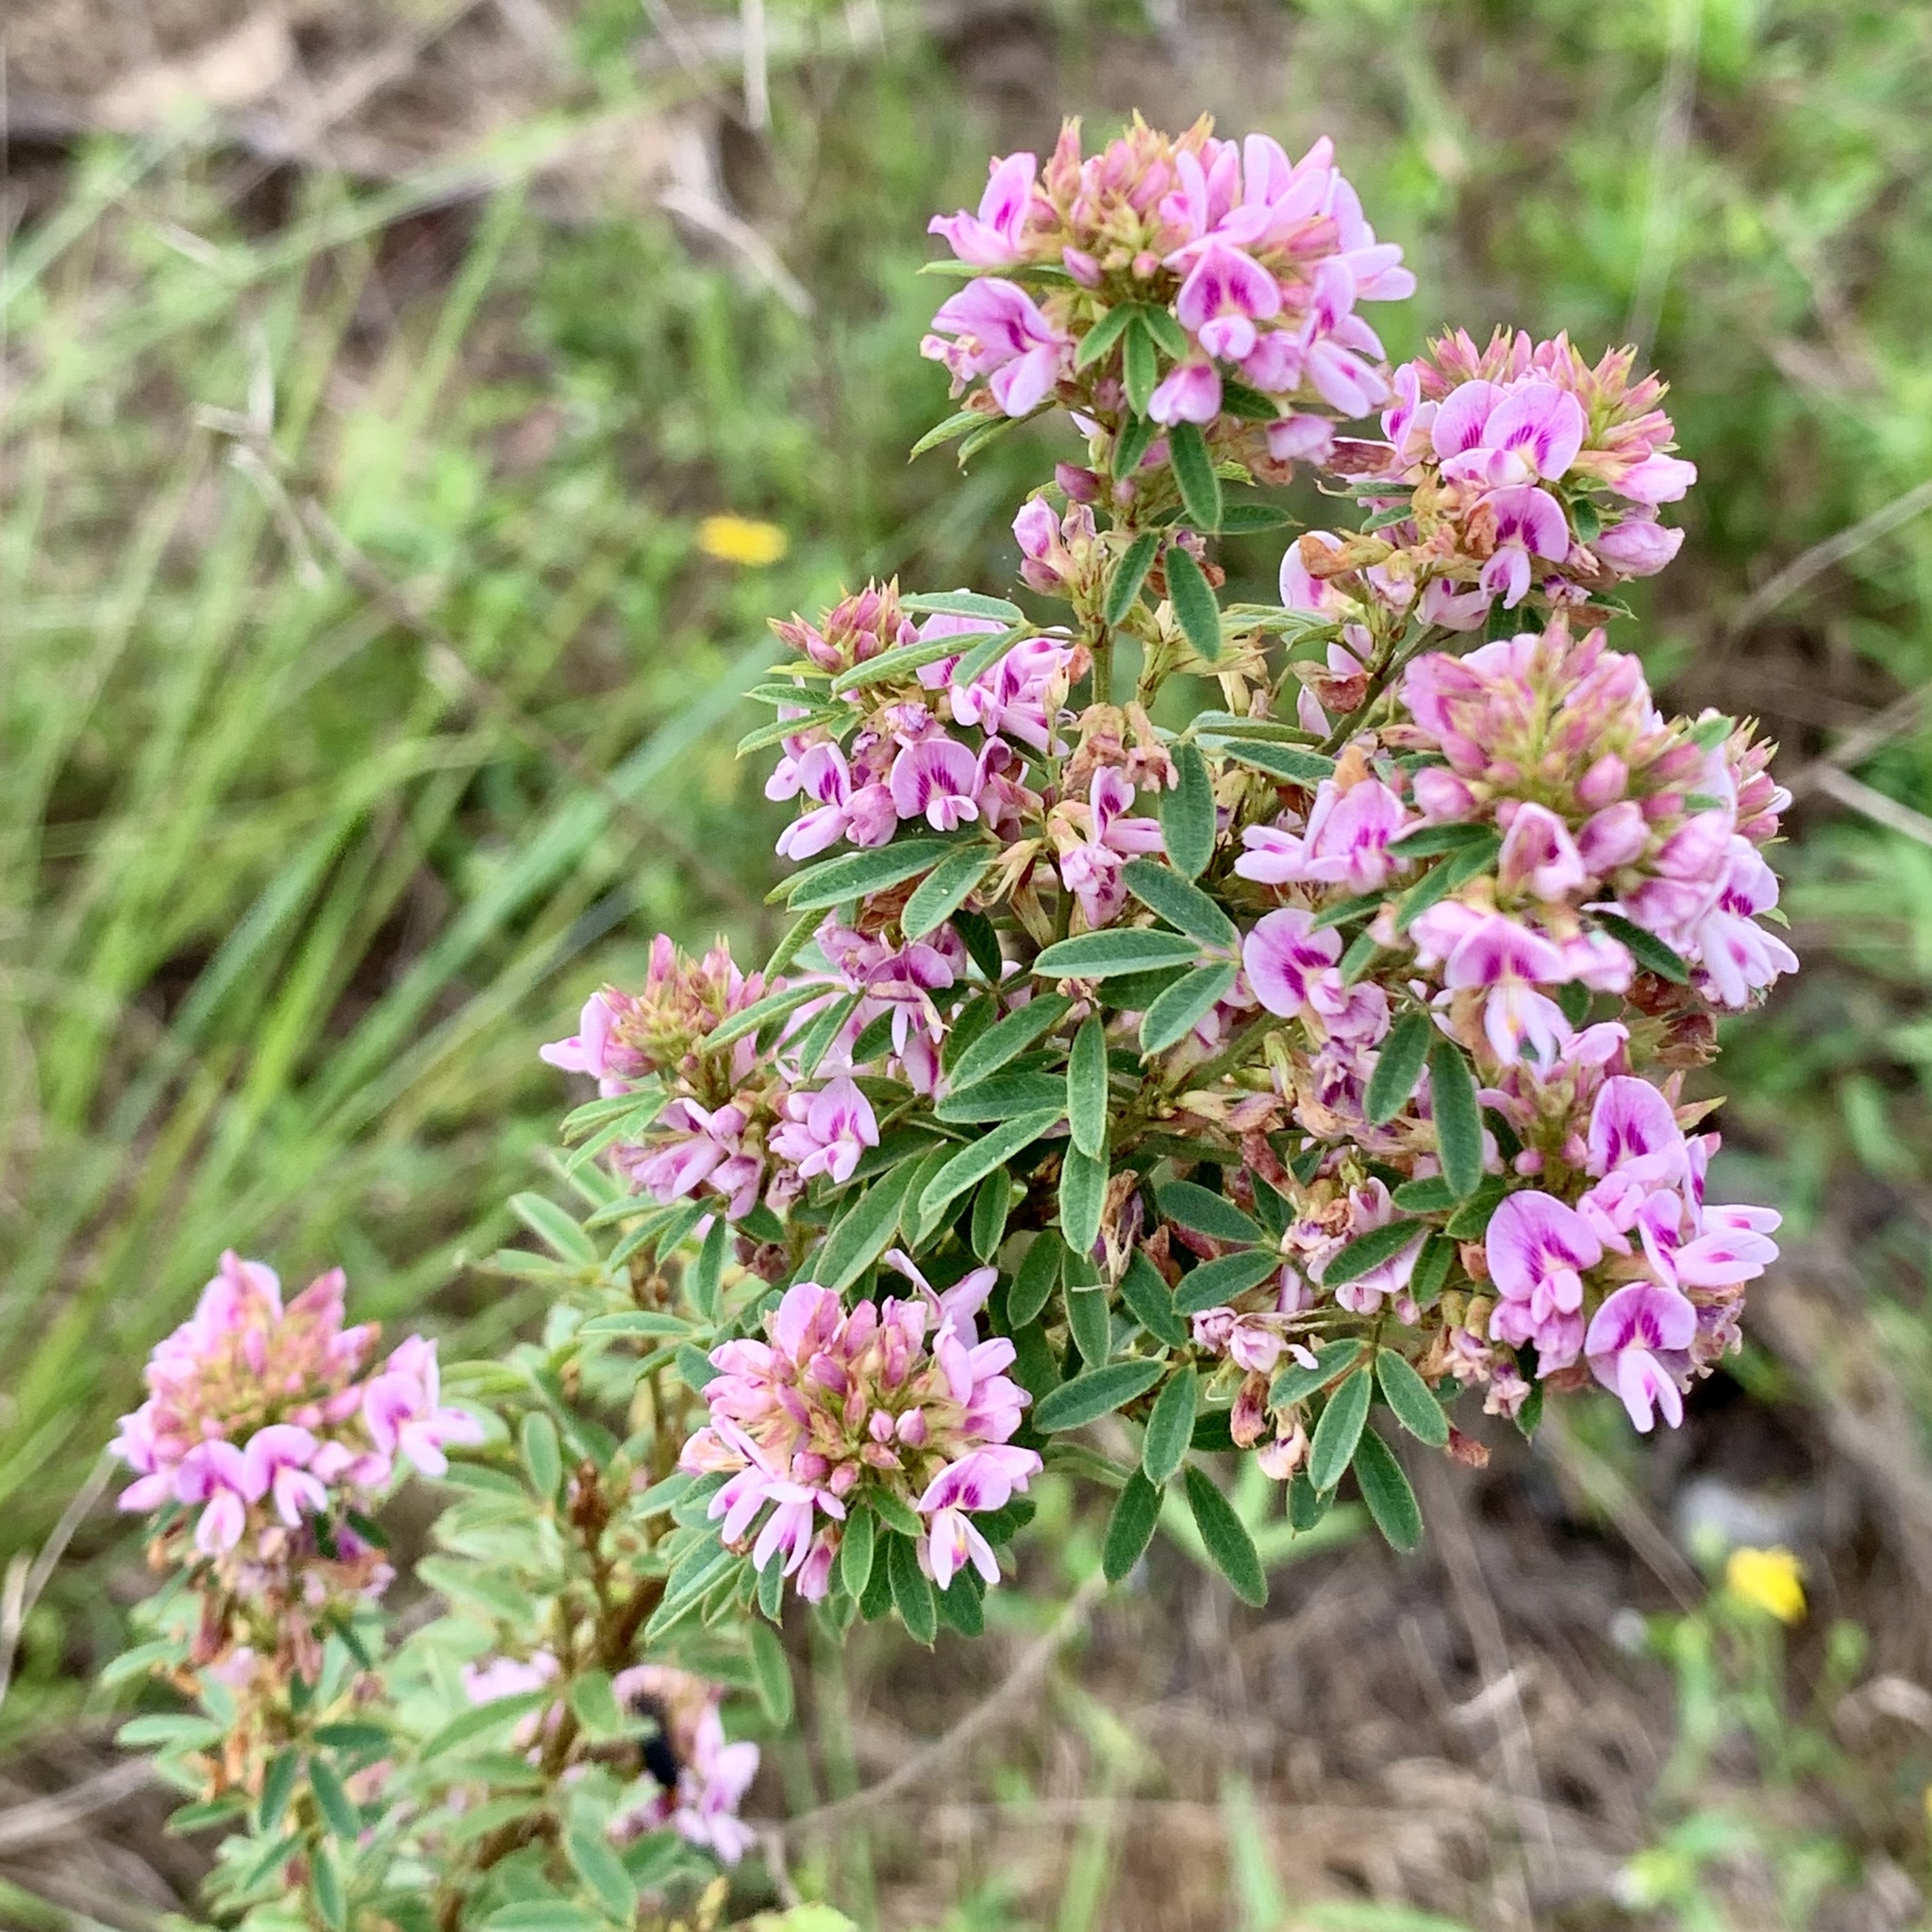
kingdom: Plantae
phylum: Tracheophyta
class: Magnoliopsida
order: Fabales
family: Fabaceae
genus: Lespedeza
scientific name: Lespedeza virginica
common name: Slender bush-clover
